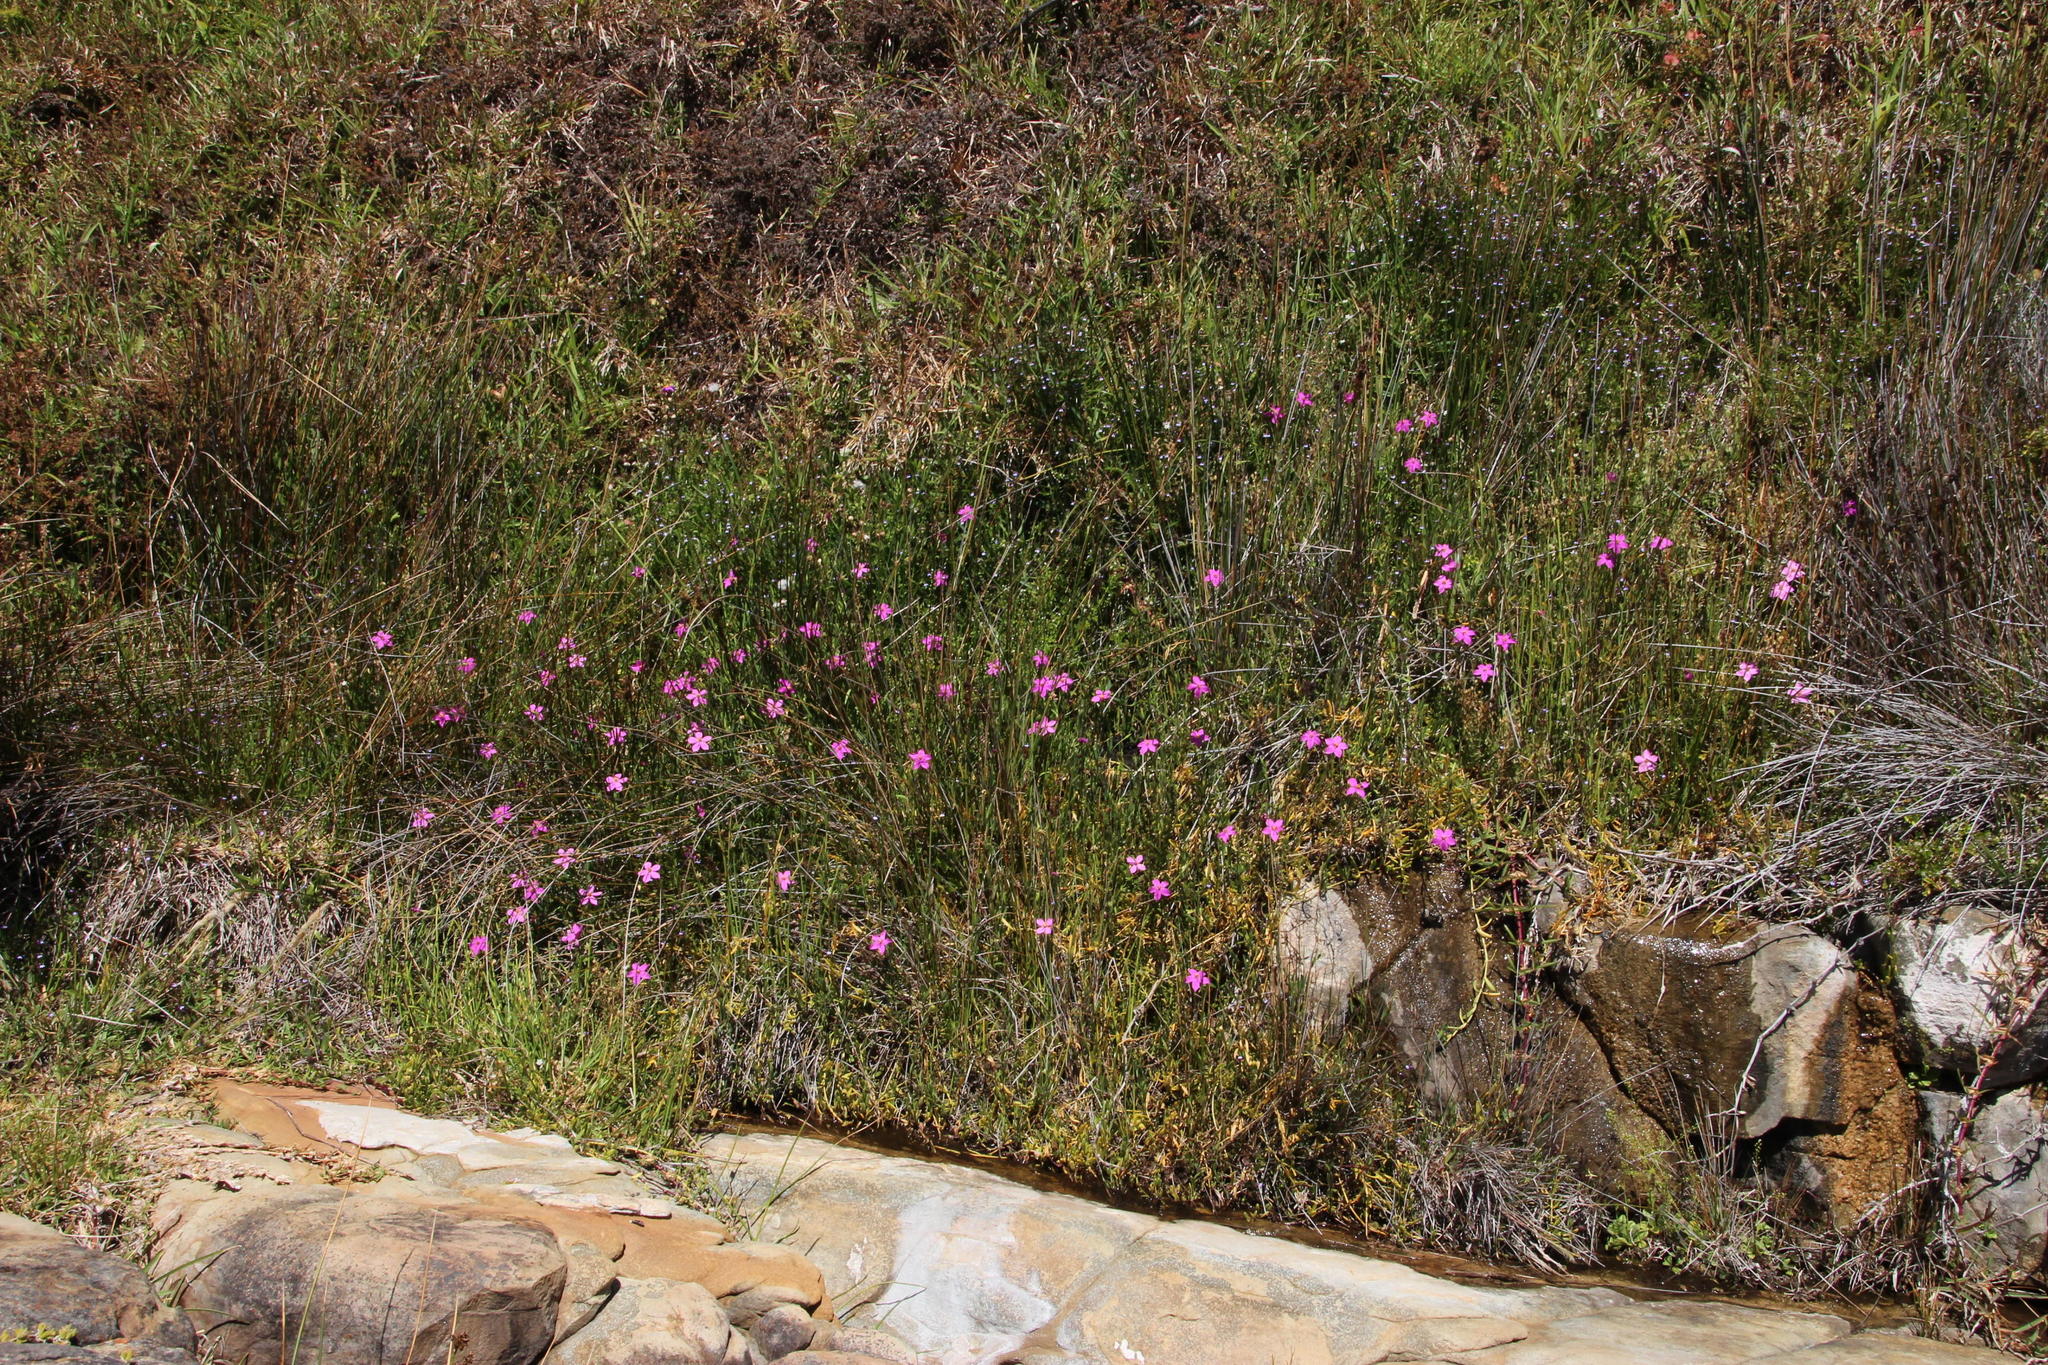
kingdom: Plantae
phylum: Tracheophyta
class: Magnoliopsida
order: Gentianales
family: Gentianaceae
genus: Chironia
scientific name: Chironia decumbens
